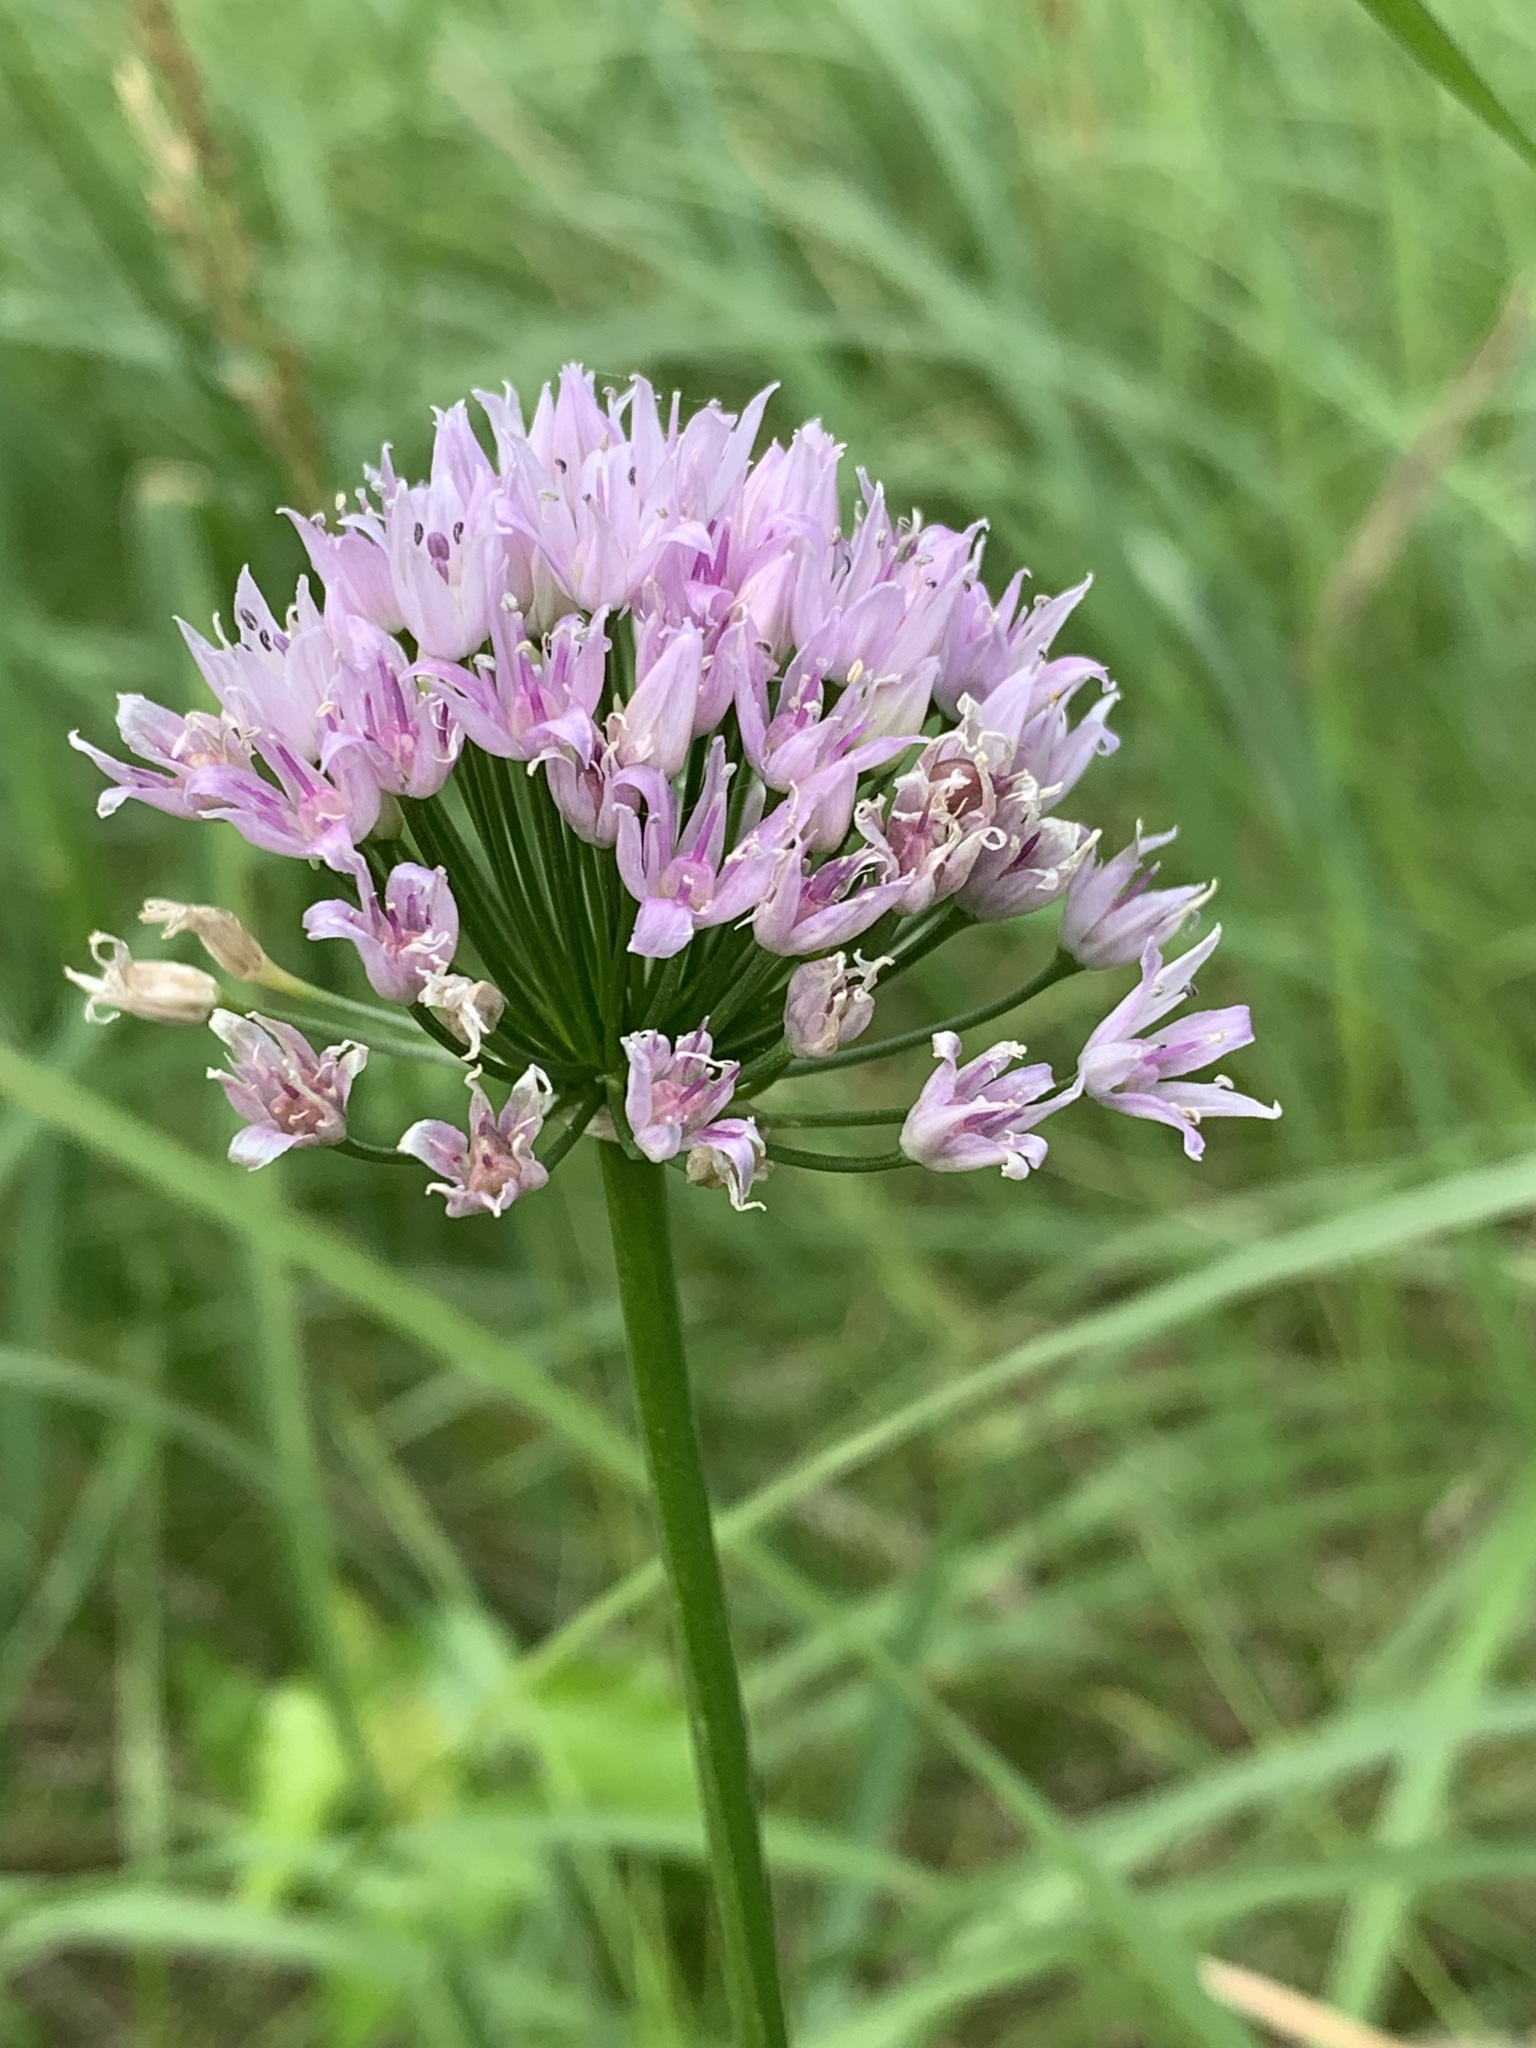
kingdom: Plantae
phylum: Tracheophyta
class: Liliopsida
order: Asparagales
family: Amaryllidaceae
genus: Allium
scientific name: Allium angulosum
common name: Mouse garlic
